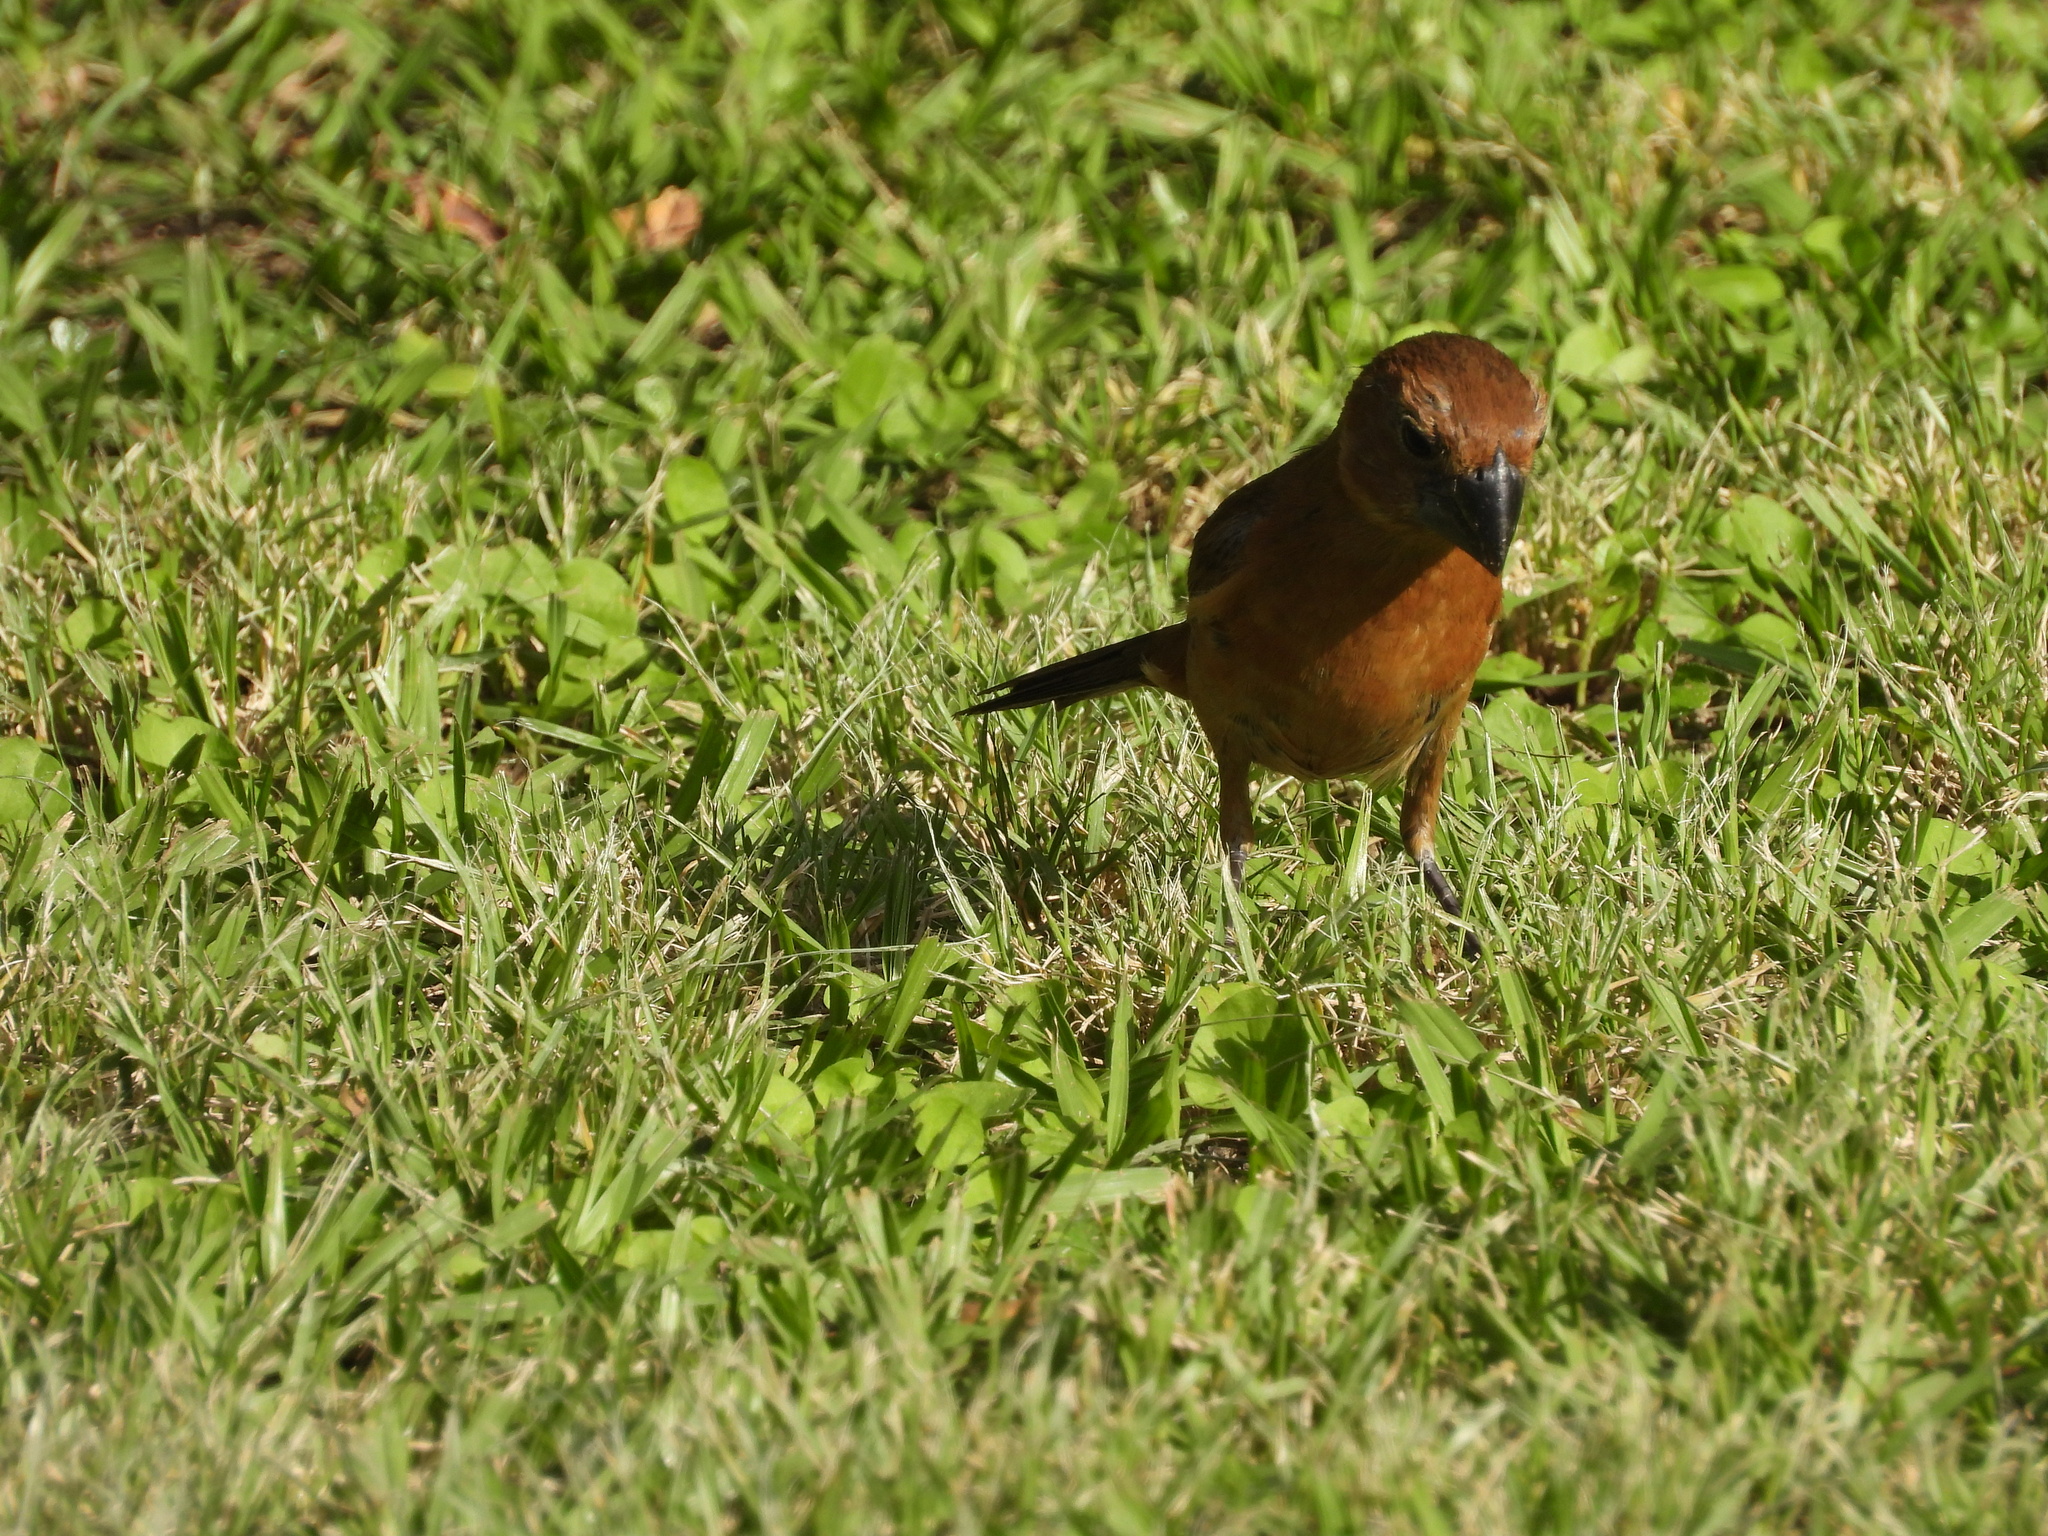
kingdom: Animalia
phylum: Chordata
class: Aves
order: Passeriformes
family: Cardinalidae
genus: Cyanoloxia
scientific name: Cyanoloxia brissonii
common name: Ultramarine grosbeak
